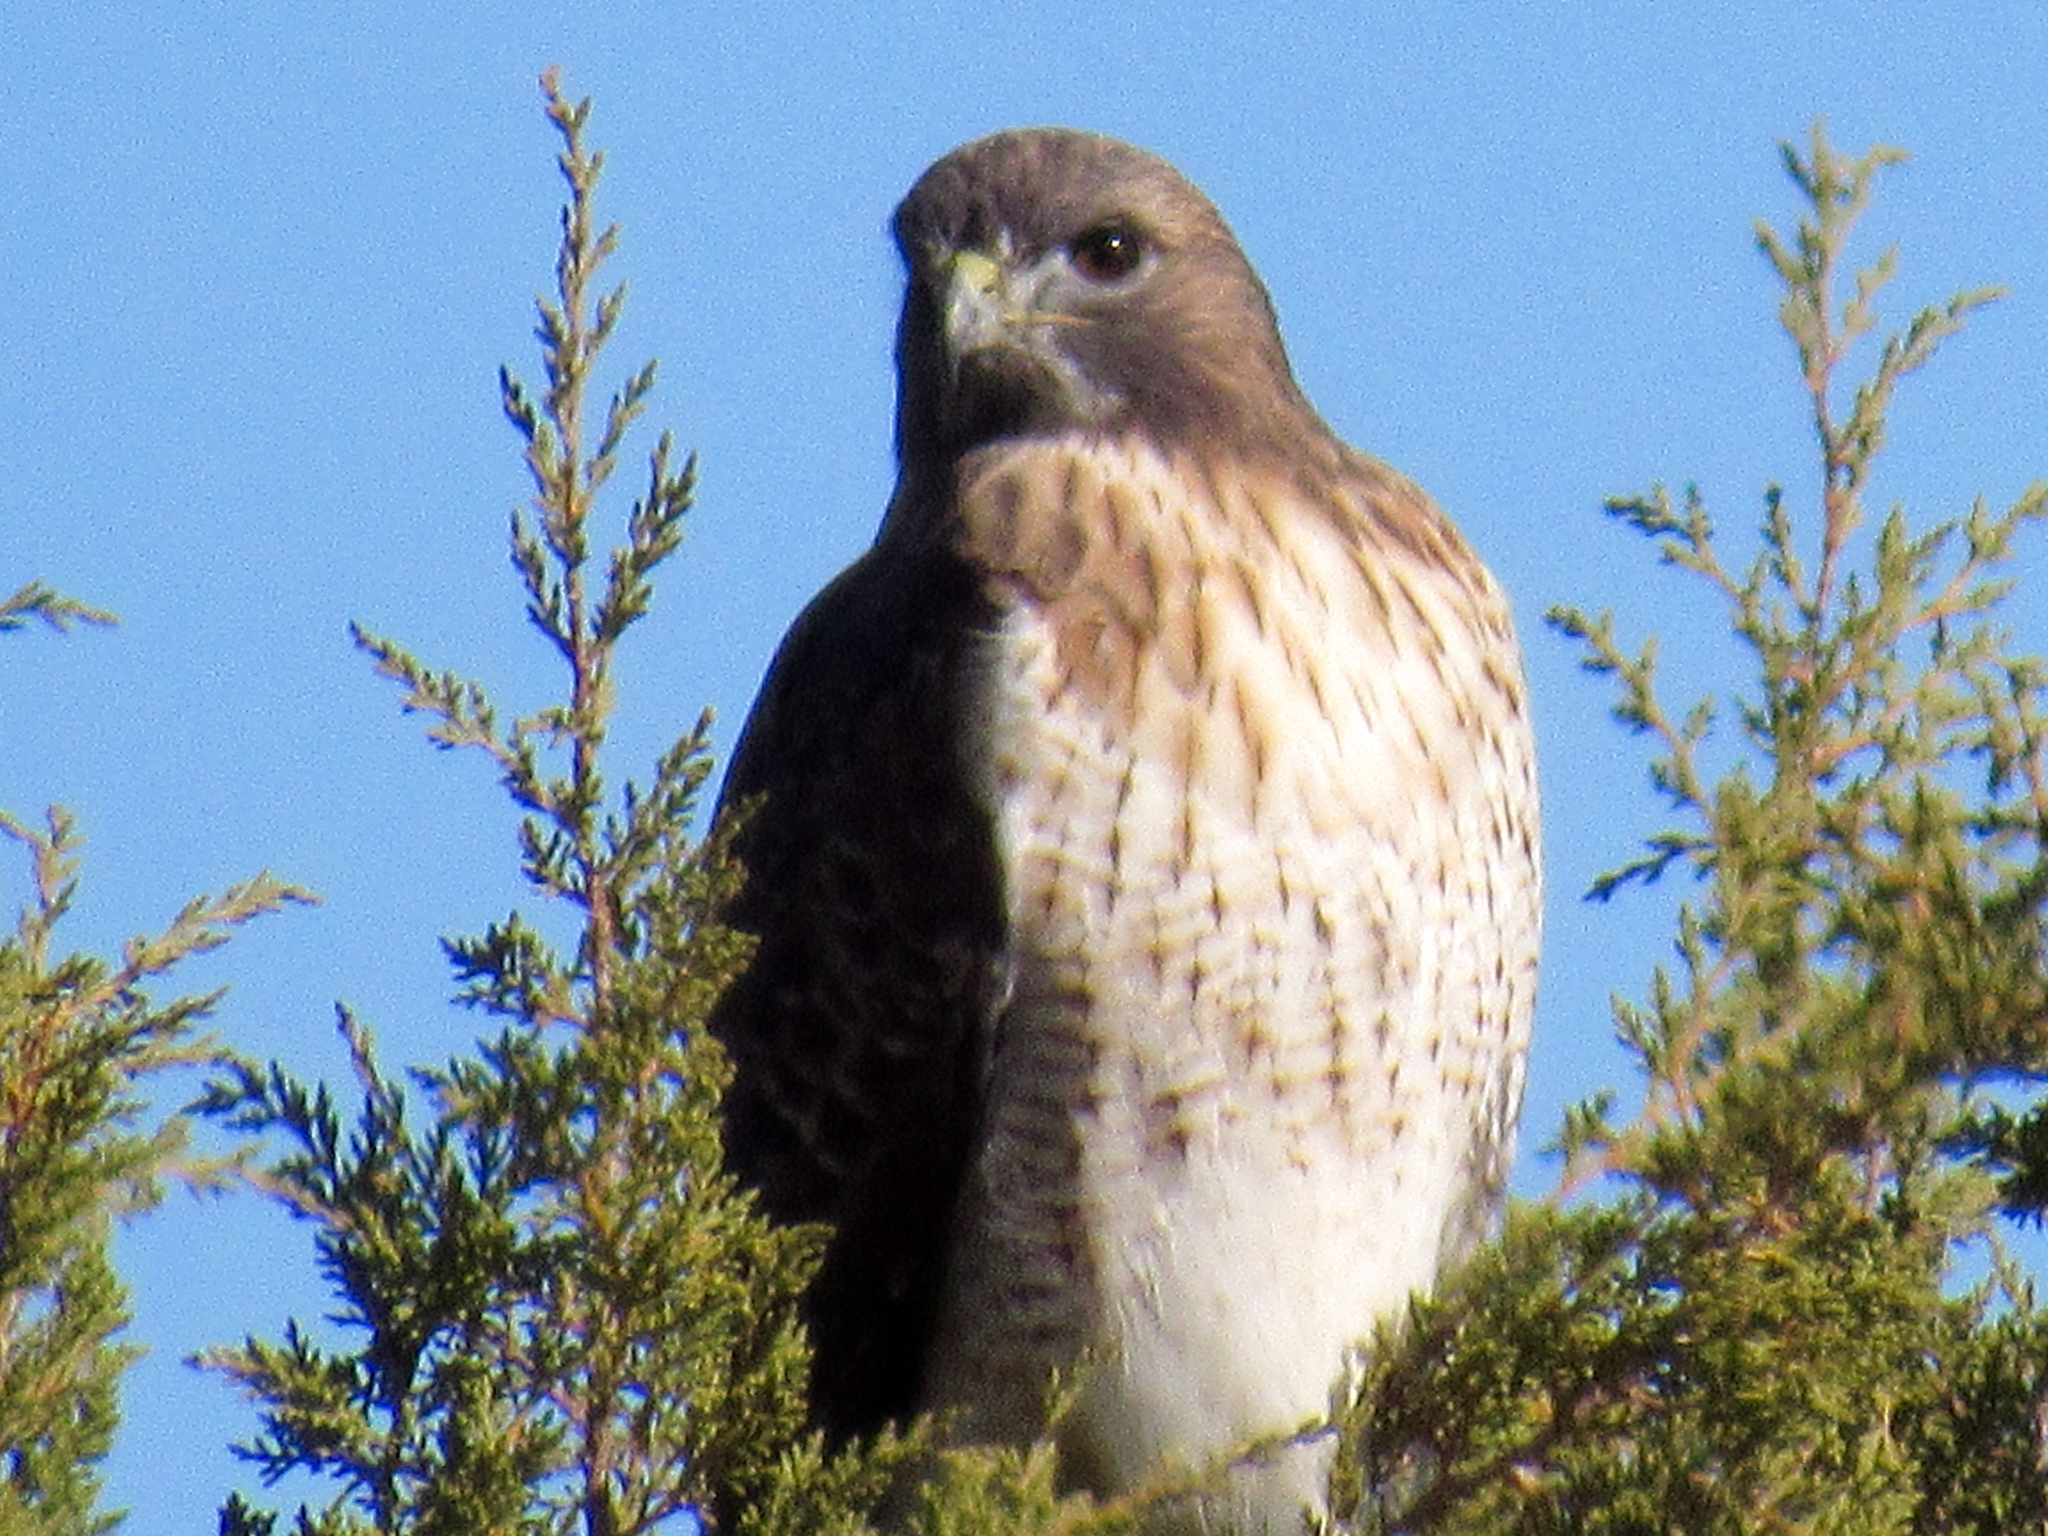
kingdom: Animalia
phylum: Chordata
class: Aves
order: Accipitriformes
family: Accipitridae
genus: Buteo
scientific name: Buteo jamaicensis
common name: Red-tailed hawk
